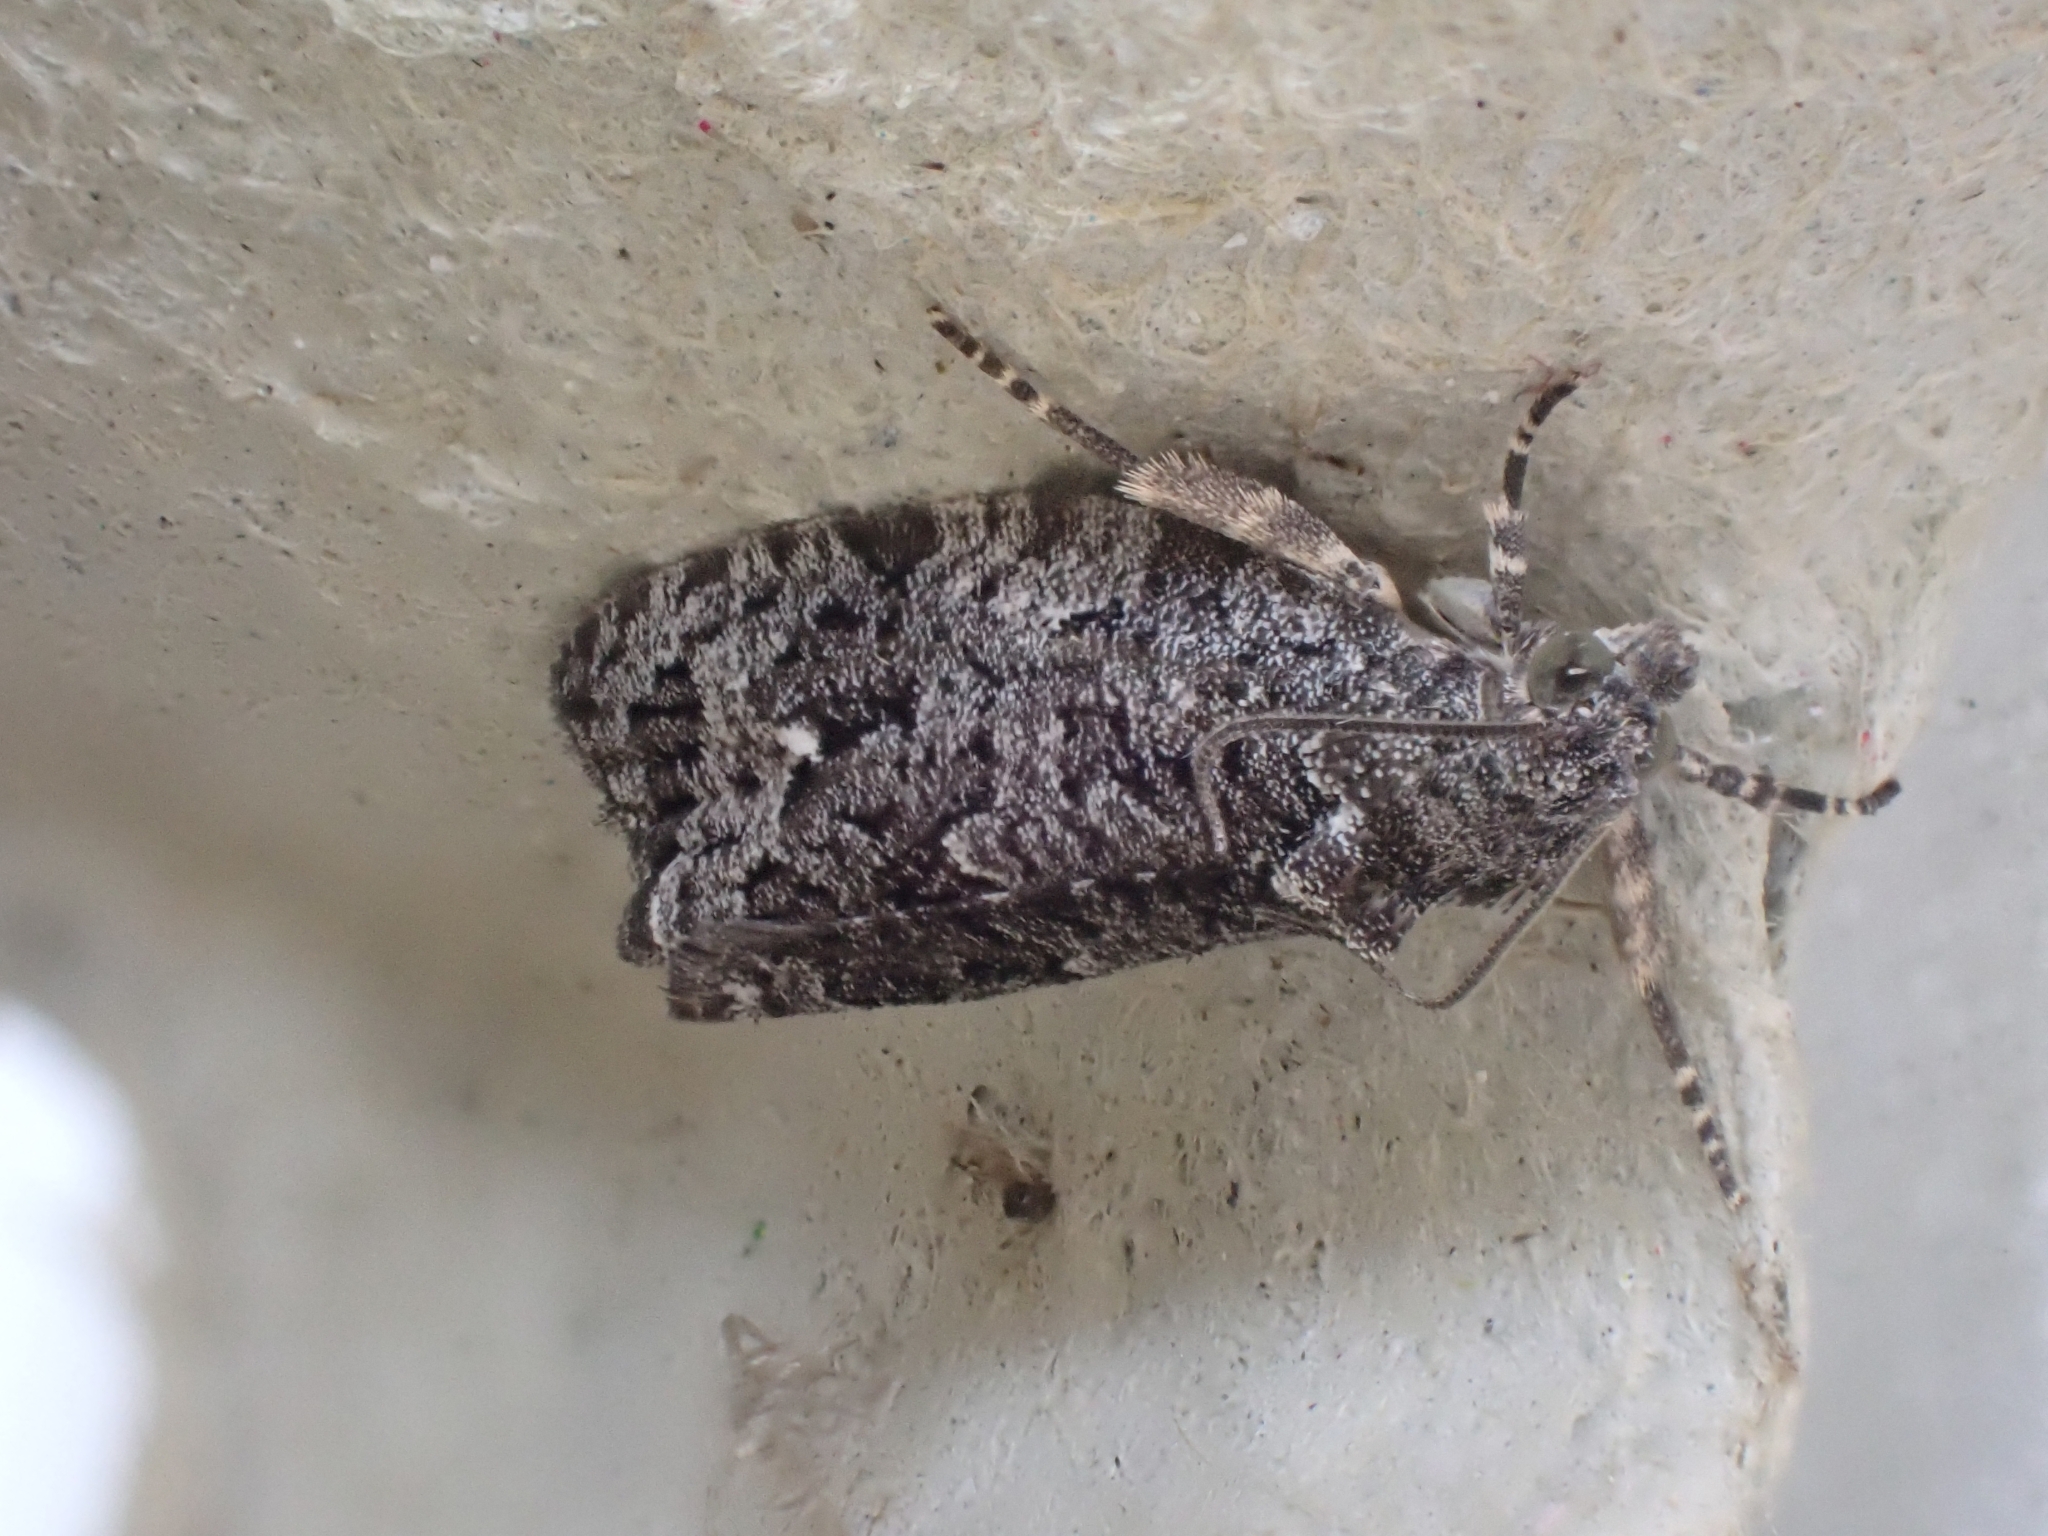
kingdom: Animalia
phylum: Arthropoda
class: Insecta
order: Lepidoptera
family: Tortricidae
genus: Apotomis
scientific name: Apotomis inundana
